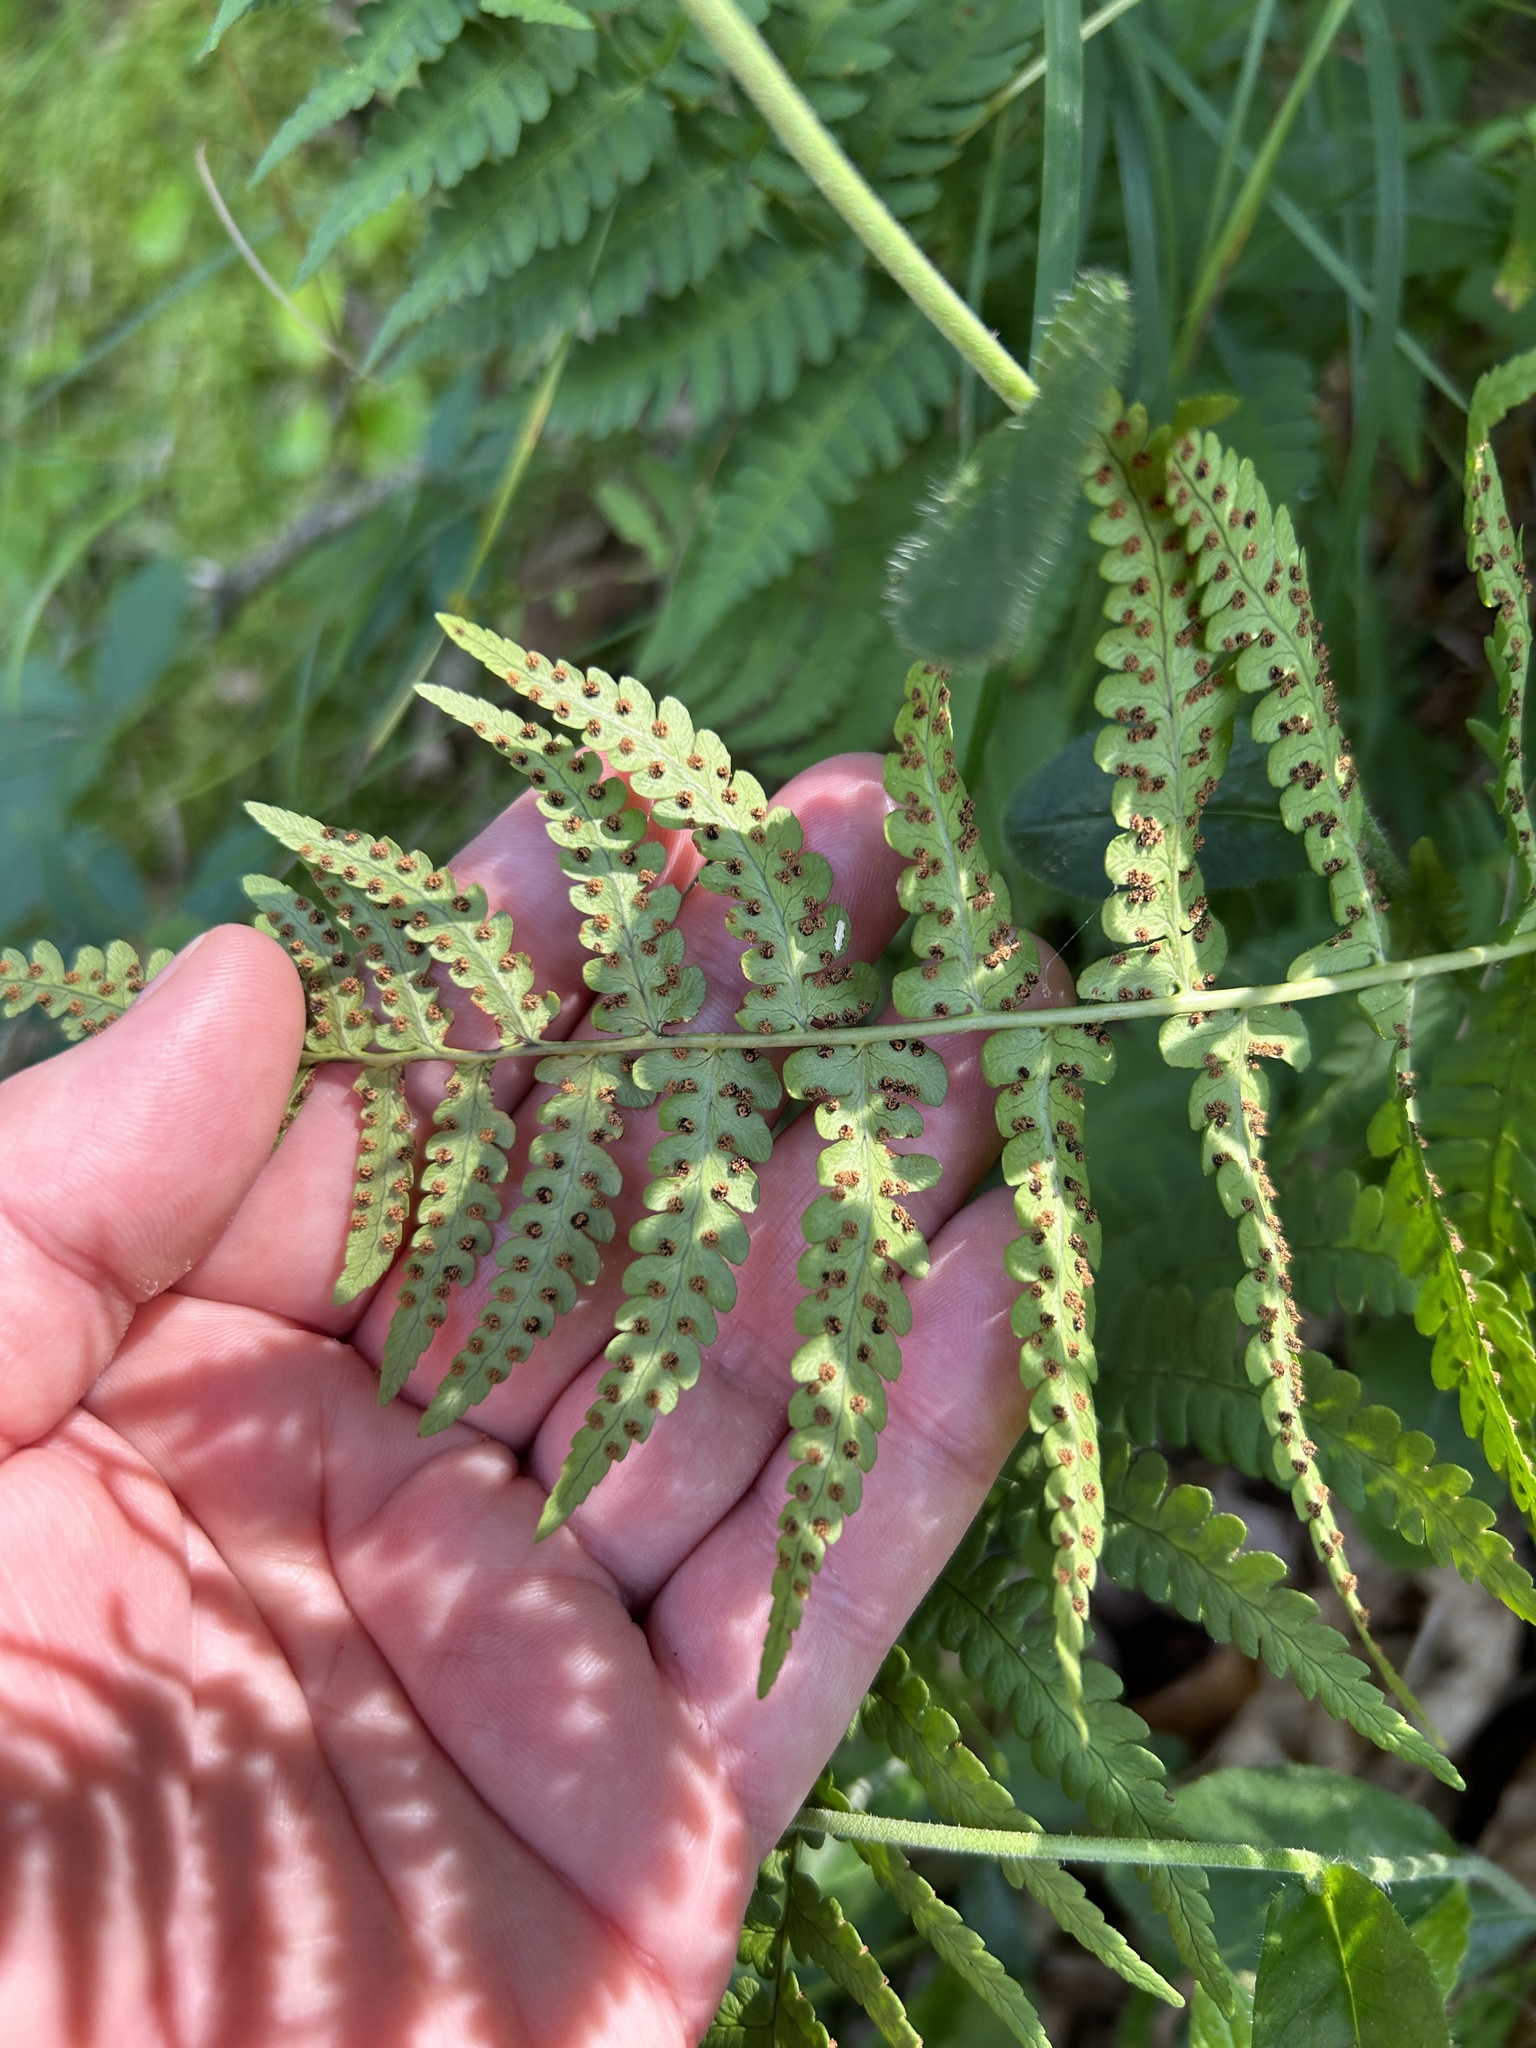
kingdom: Plantae
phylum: Tracheophyta
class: Polypodiopsida
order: Polypodiales
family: Dryopteridaceae
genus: Dryopteris
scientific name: Dryopteris marginalis
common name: Marginal wood fern
